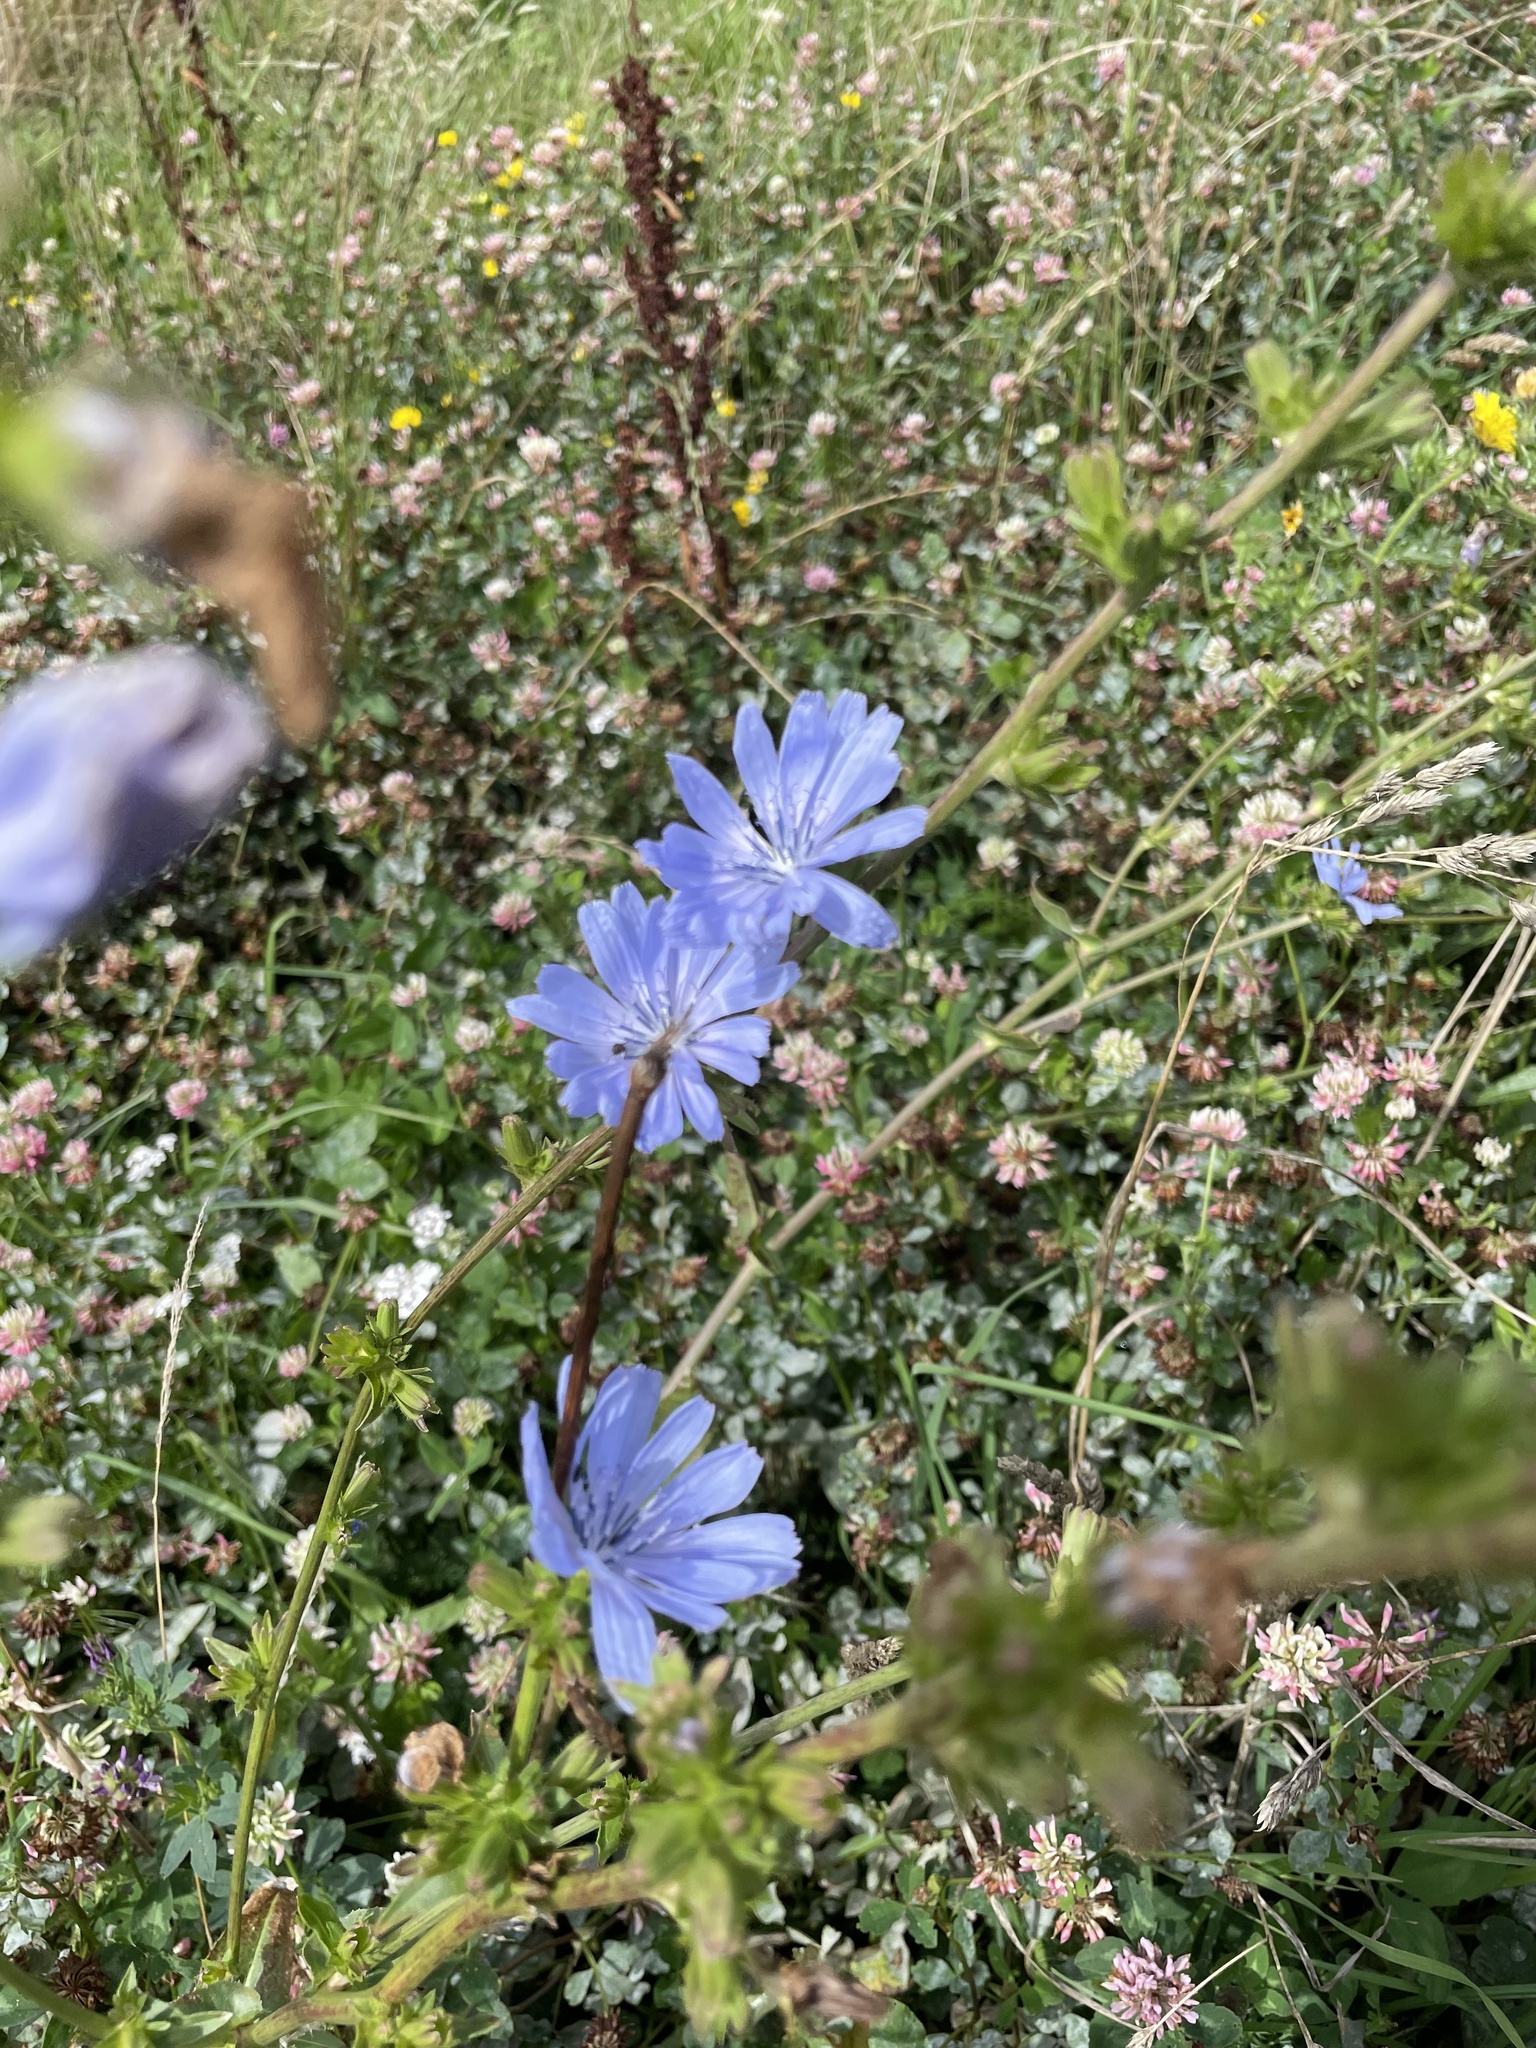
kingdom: Plantae
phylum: Tracheophyta
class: Magnoliopsida
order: Asterales
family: Asteraceae
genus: Cichorium
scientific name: Cichorium intybus
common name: Chicory
